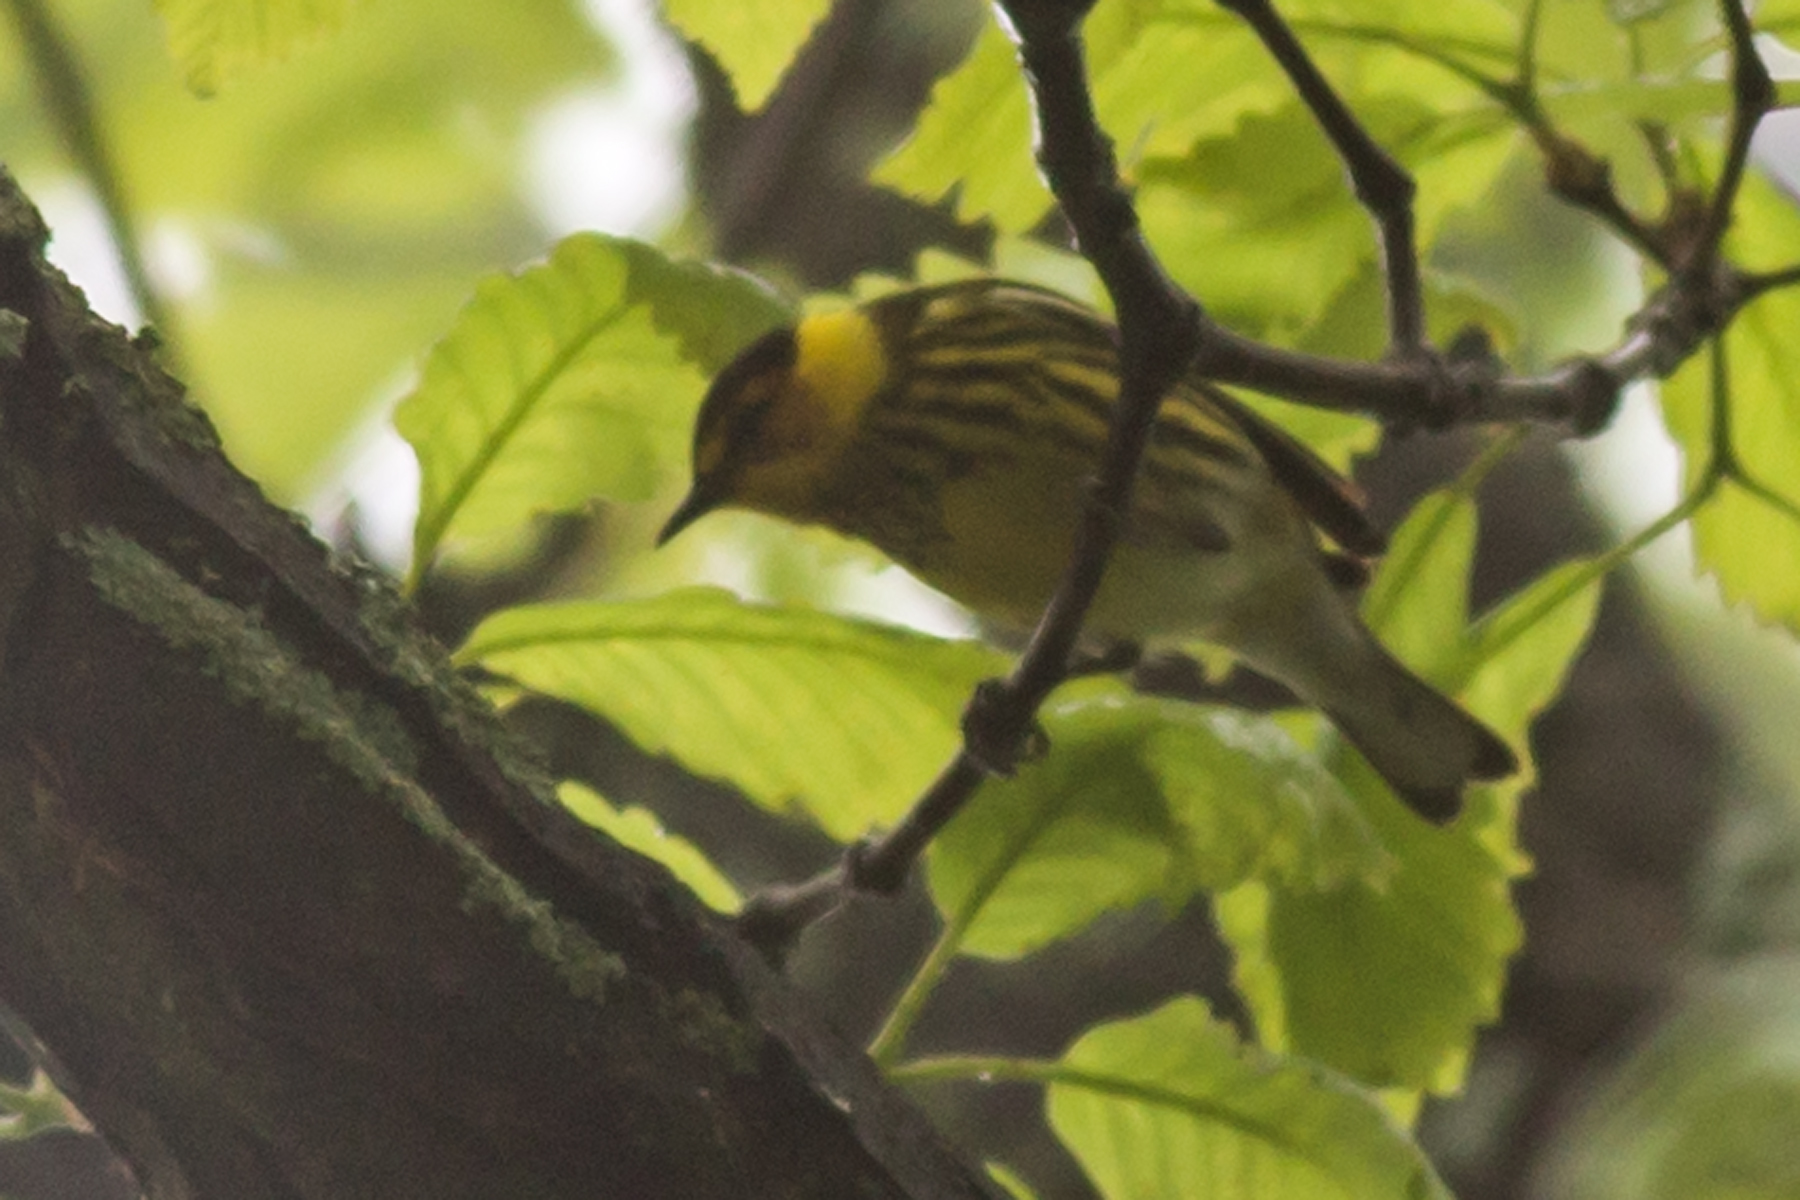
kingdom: Animalia
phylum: Chordata
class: Aves
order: Passeriformes
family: Parulidae
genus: Setophaga
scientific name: Setophaga tigrina
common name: Cape may warbler
